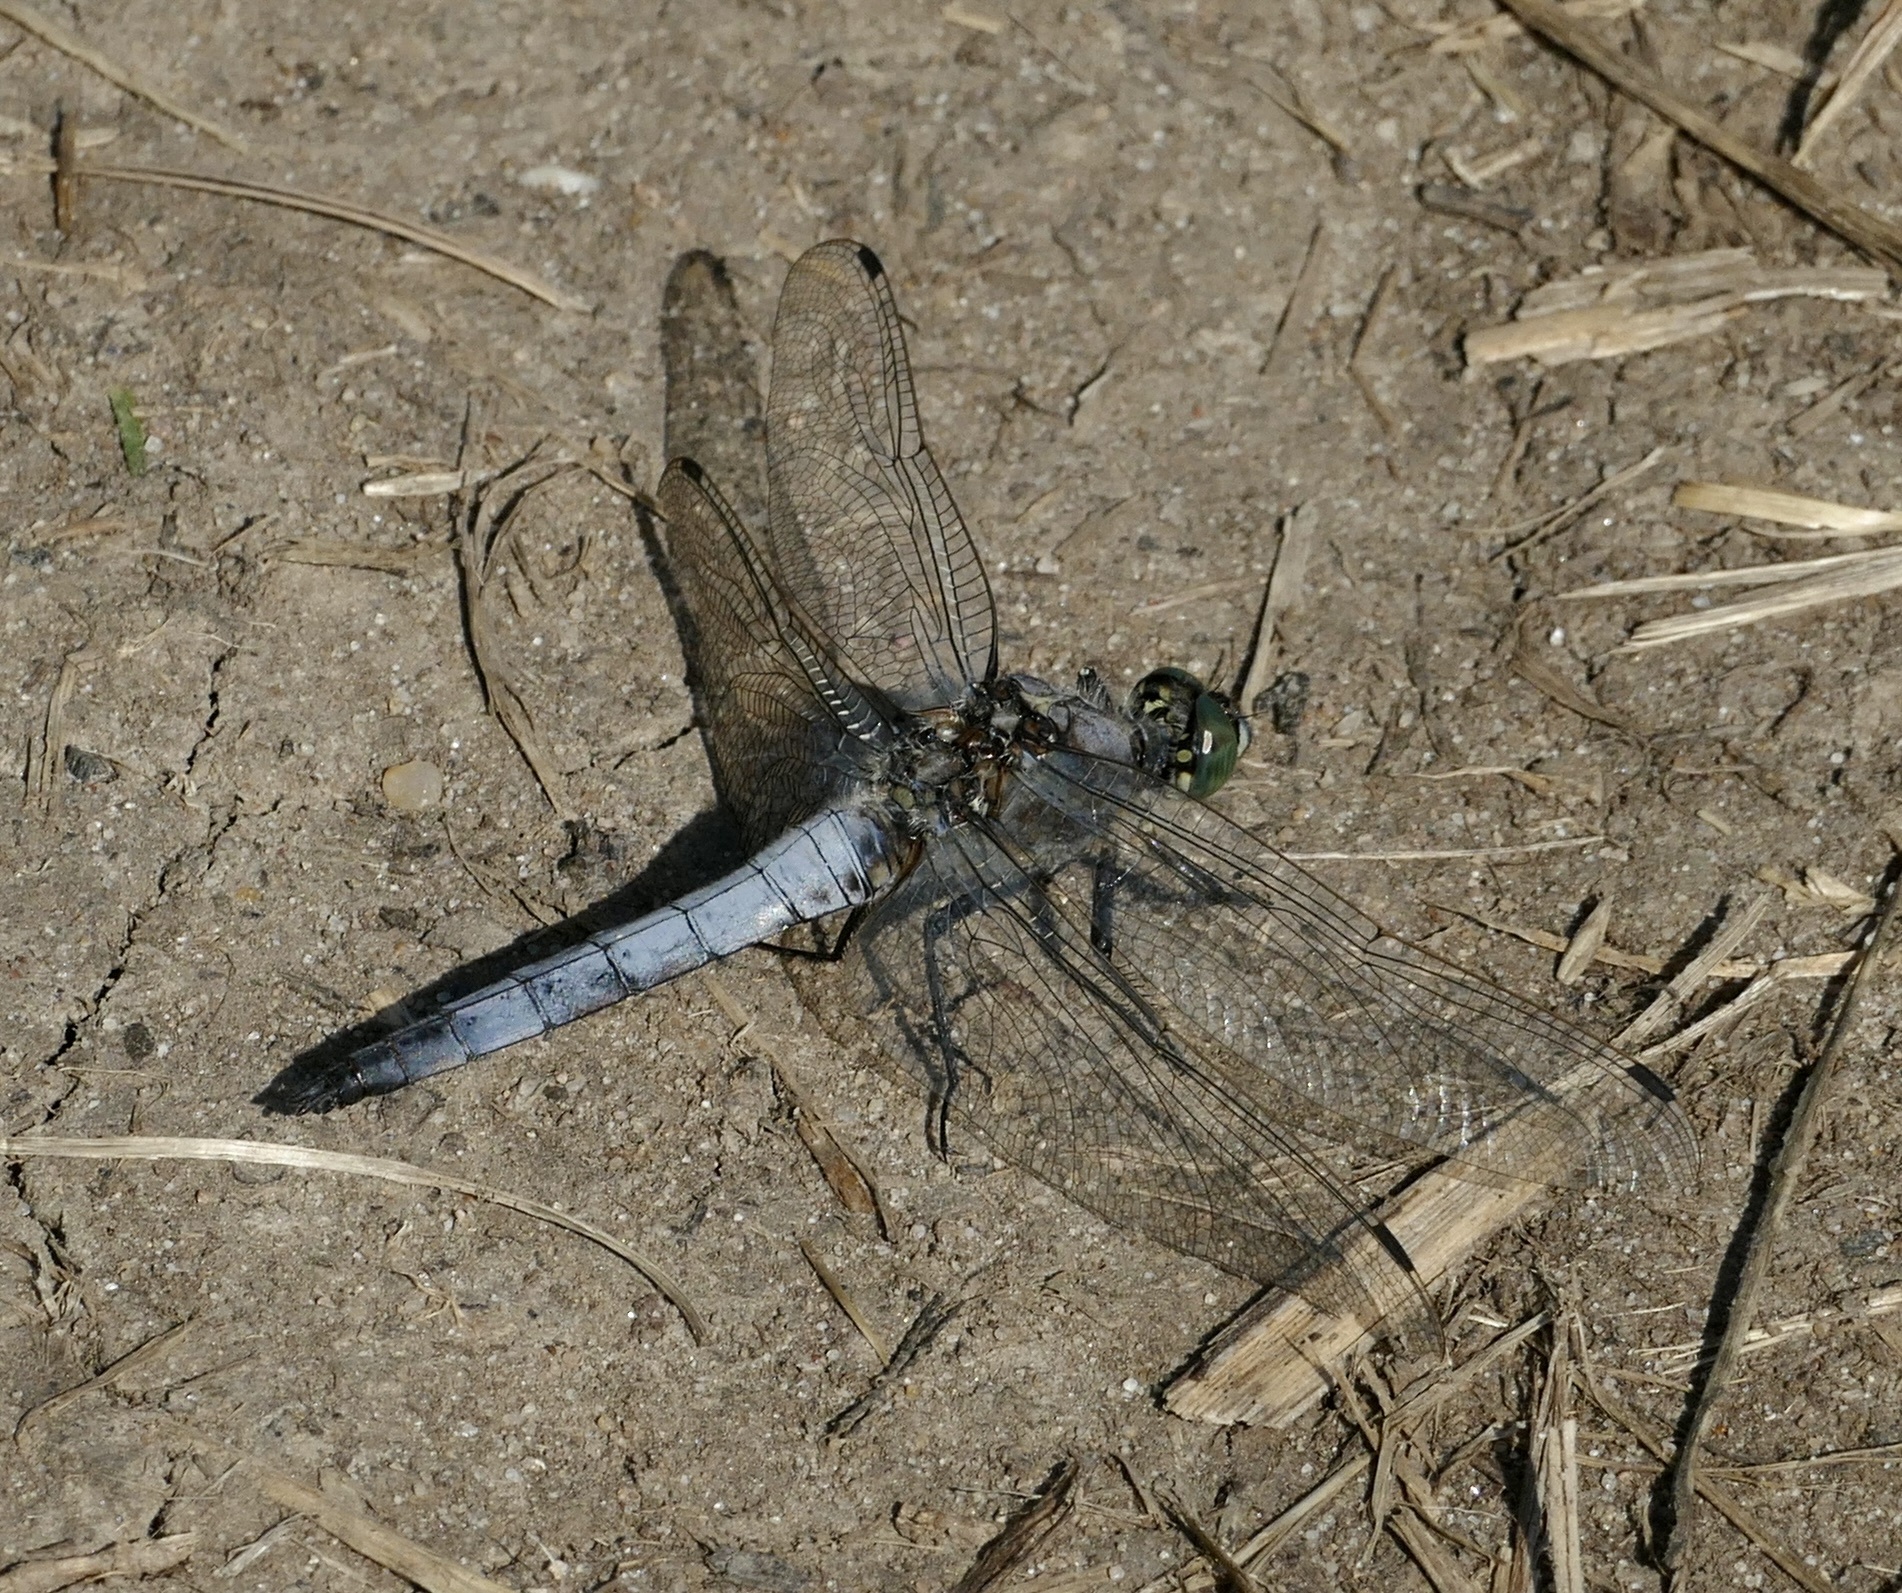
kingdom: Animalia
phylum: Arthropoda
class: Insecta
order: Odonata
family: Libellulidae
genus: Orthetrum
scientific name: Orthetrum cancellatum
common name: Black-tailed skimmer
